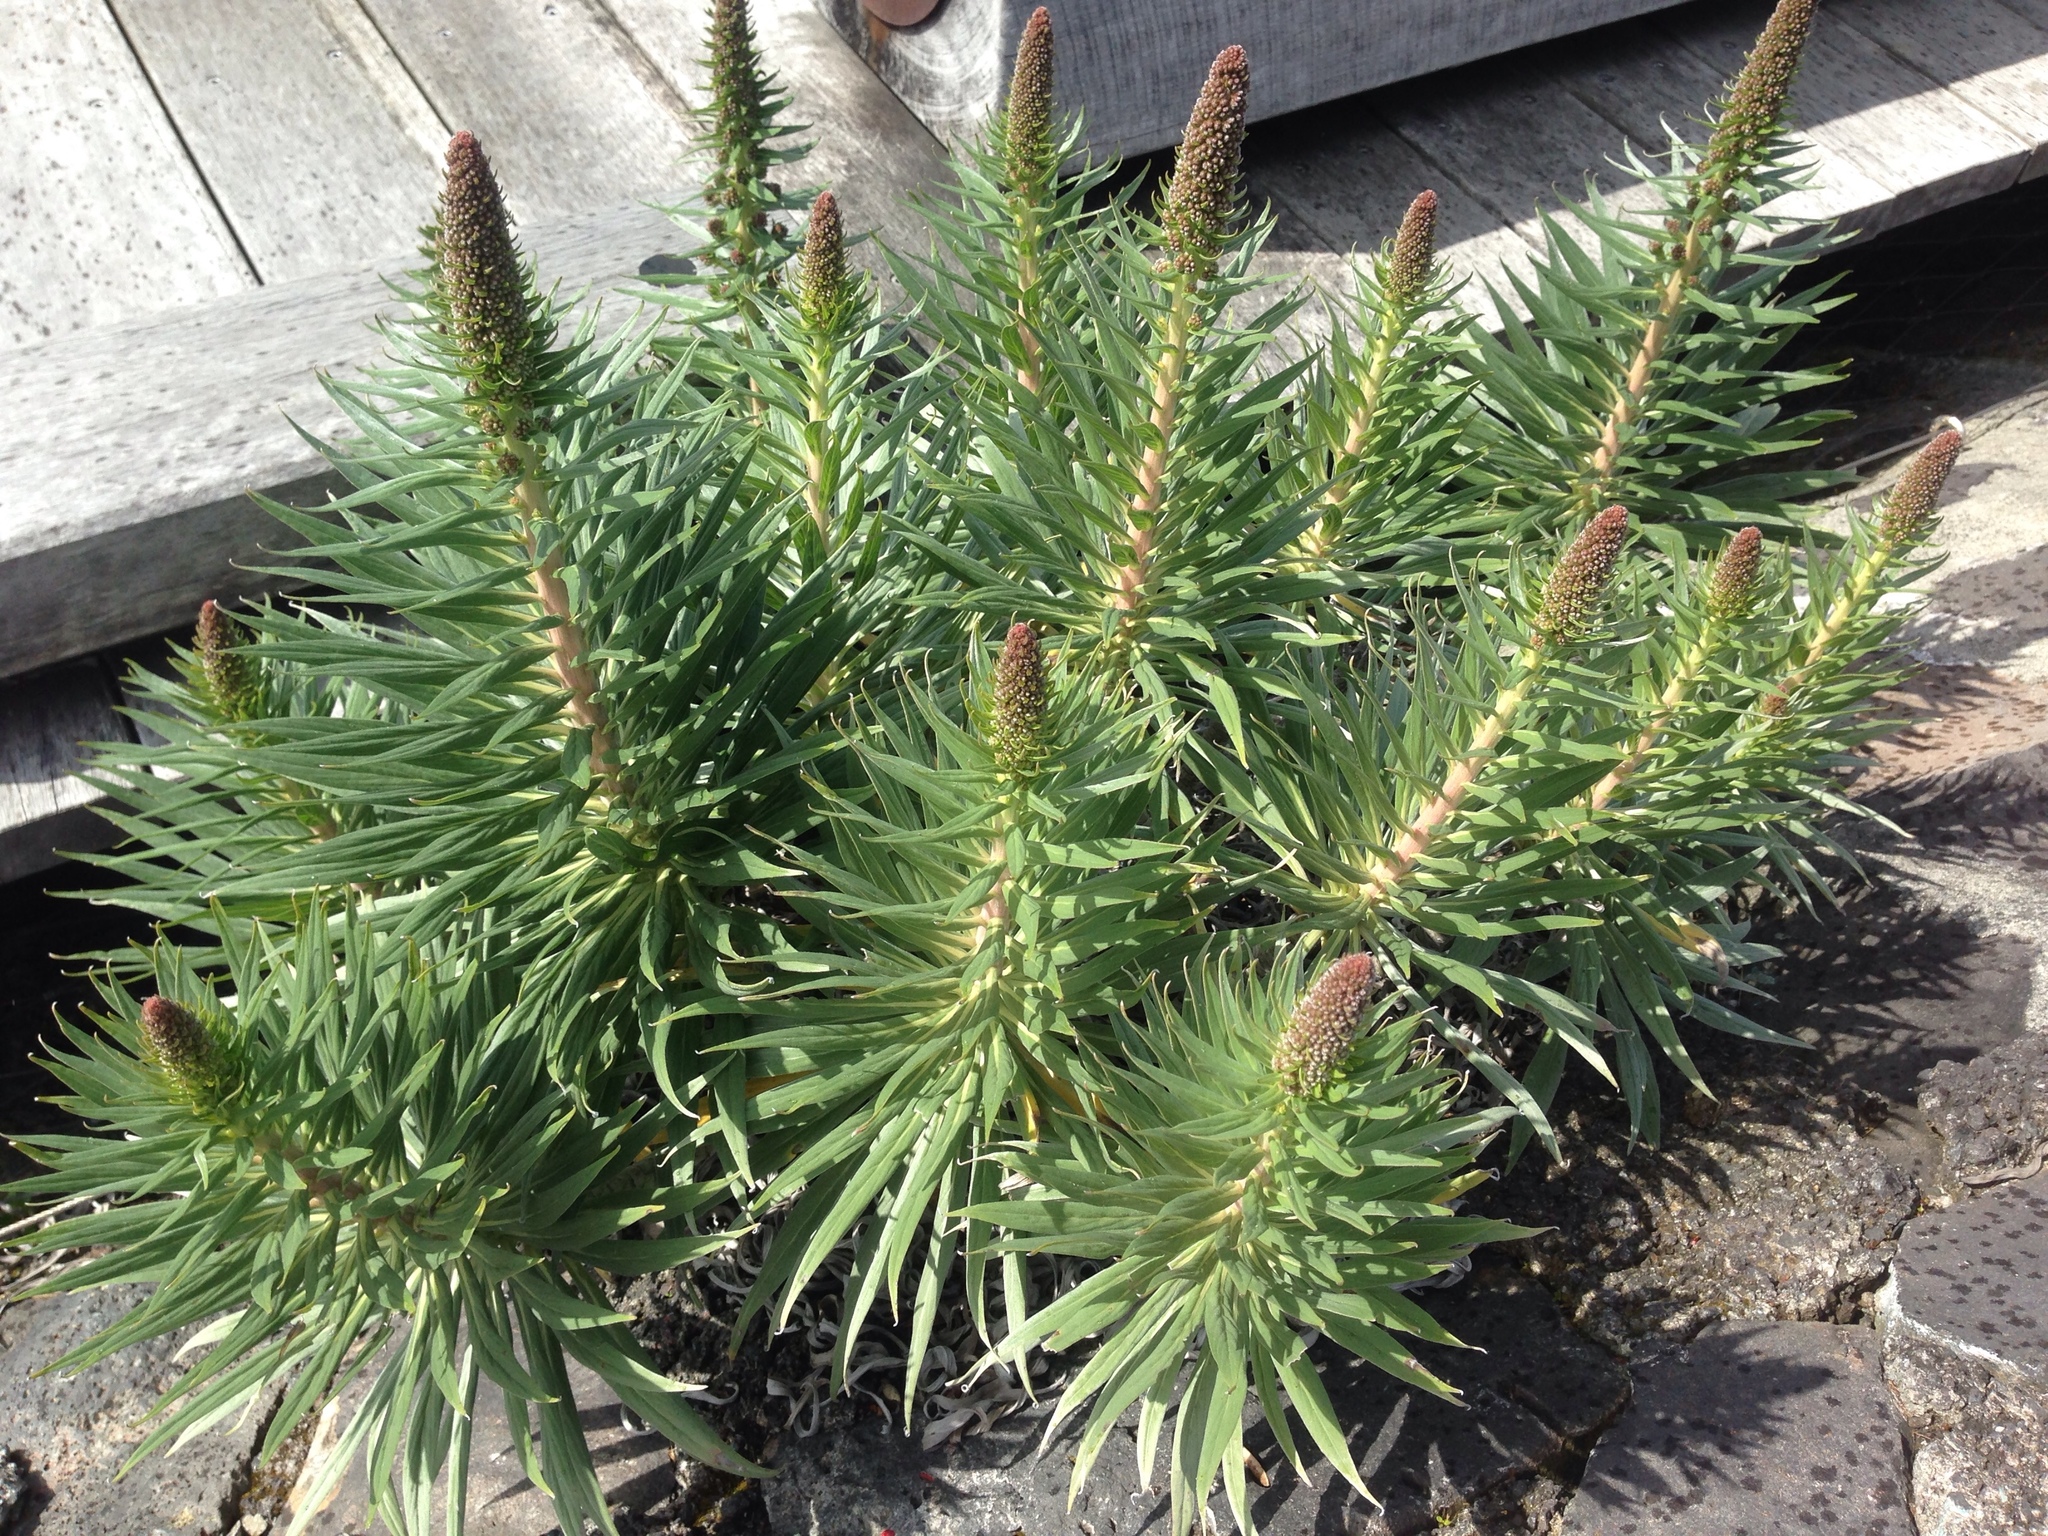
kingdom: Plantae
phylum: Tracheophyta
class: Magnoliopsida
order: Boraginales
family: Boraginaceae
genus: Echium
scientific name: Echium candicans
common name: Pride of madeira
